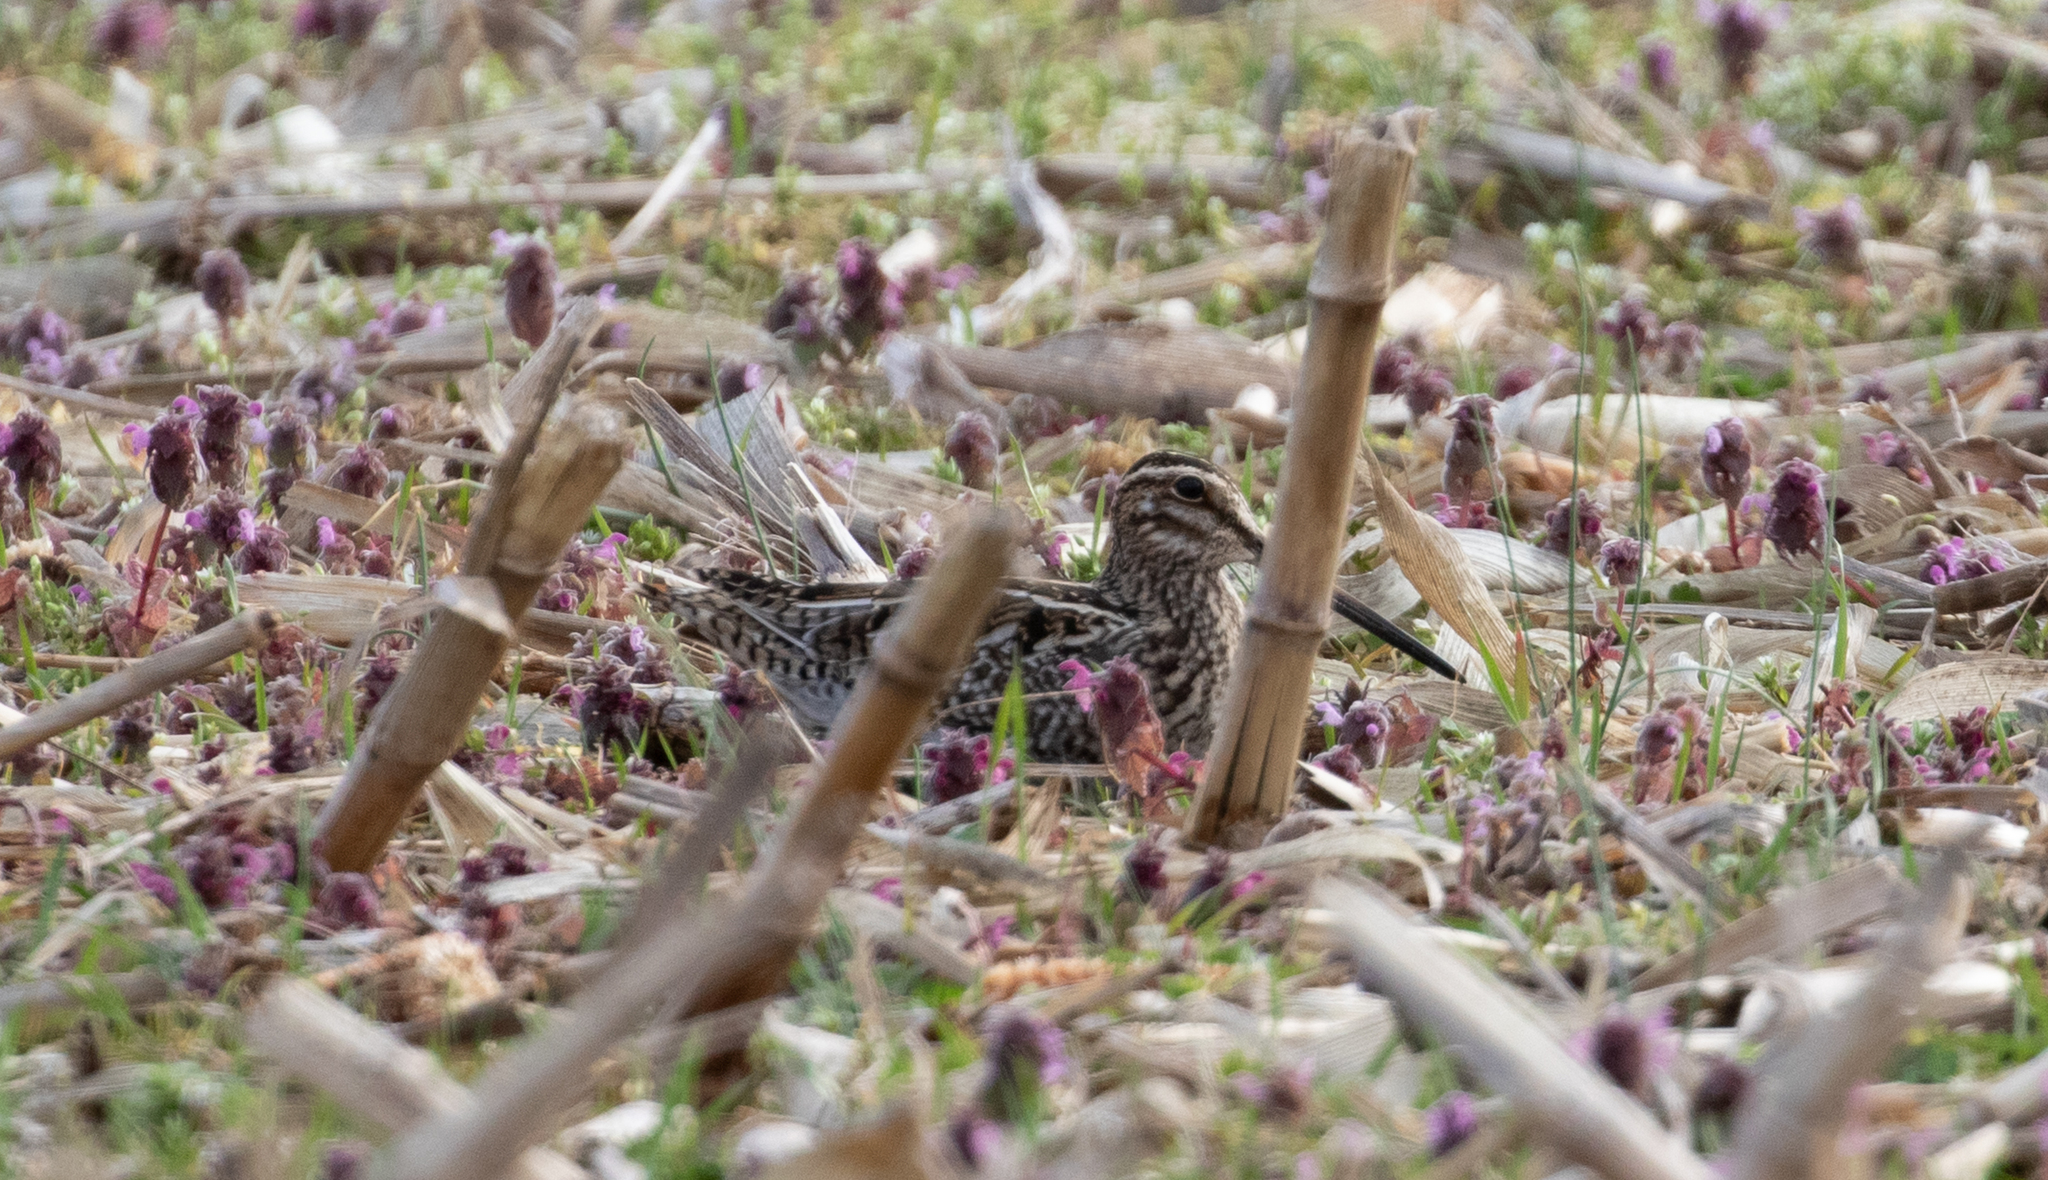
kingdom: Animalia
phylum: Chordata
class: Aves
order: Charadriiformes
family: Scolopacidae
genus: Gallinago
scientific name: Gallinago delicata
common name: Wilson's snipe
